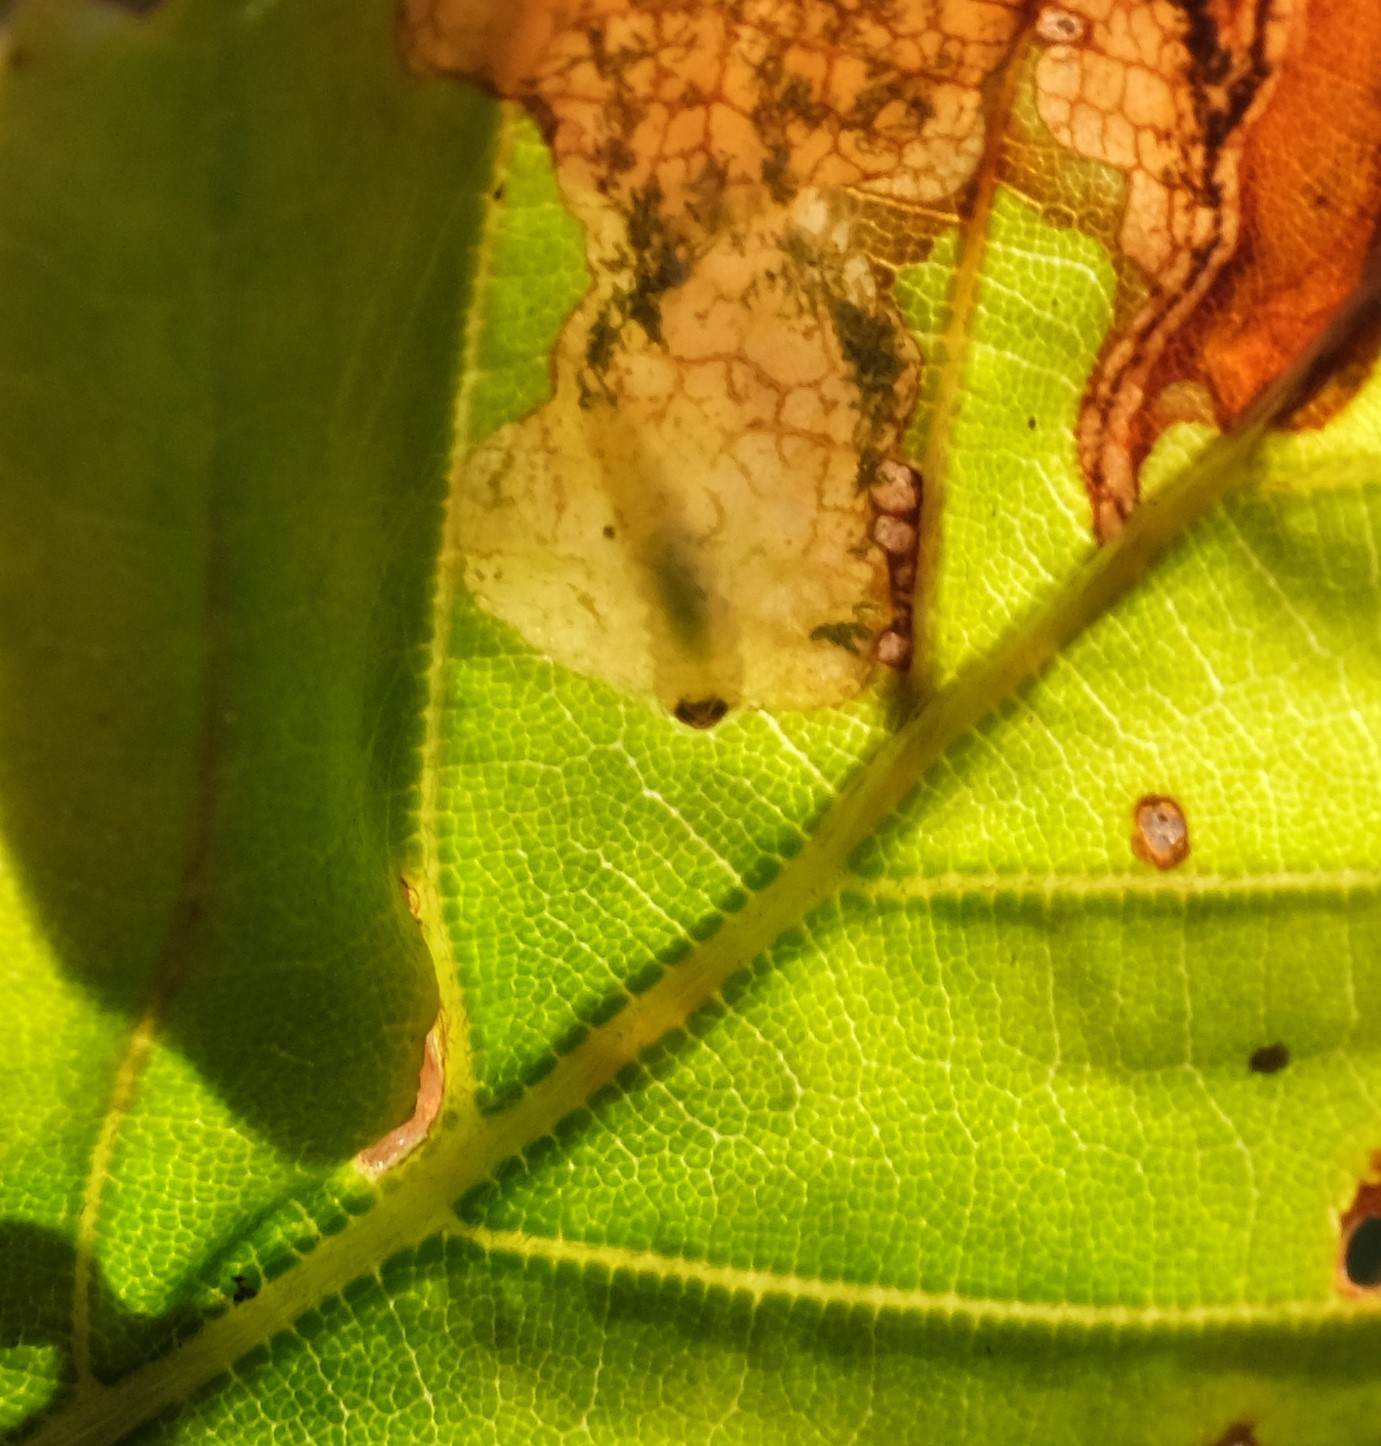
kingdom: Animalia
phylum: Arthropoda
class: Insecta
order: Coleoptera
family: Curculionidae
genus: Orchestes
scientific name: Orchestes fagi
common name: Beech leaf miner
